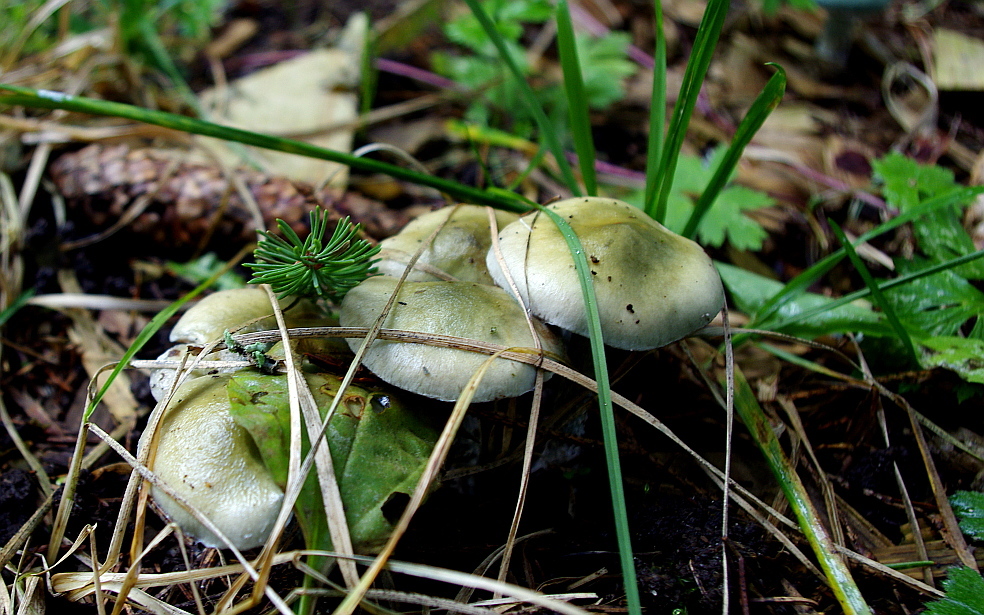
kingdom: Fungi
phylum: Basidiomycota
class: Agaricomycetes
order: Agaricales
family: Strophariaceae
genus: Stropharia
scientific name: Stropharia aeruginosa
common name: Verdigris roundhead
